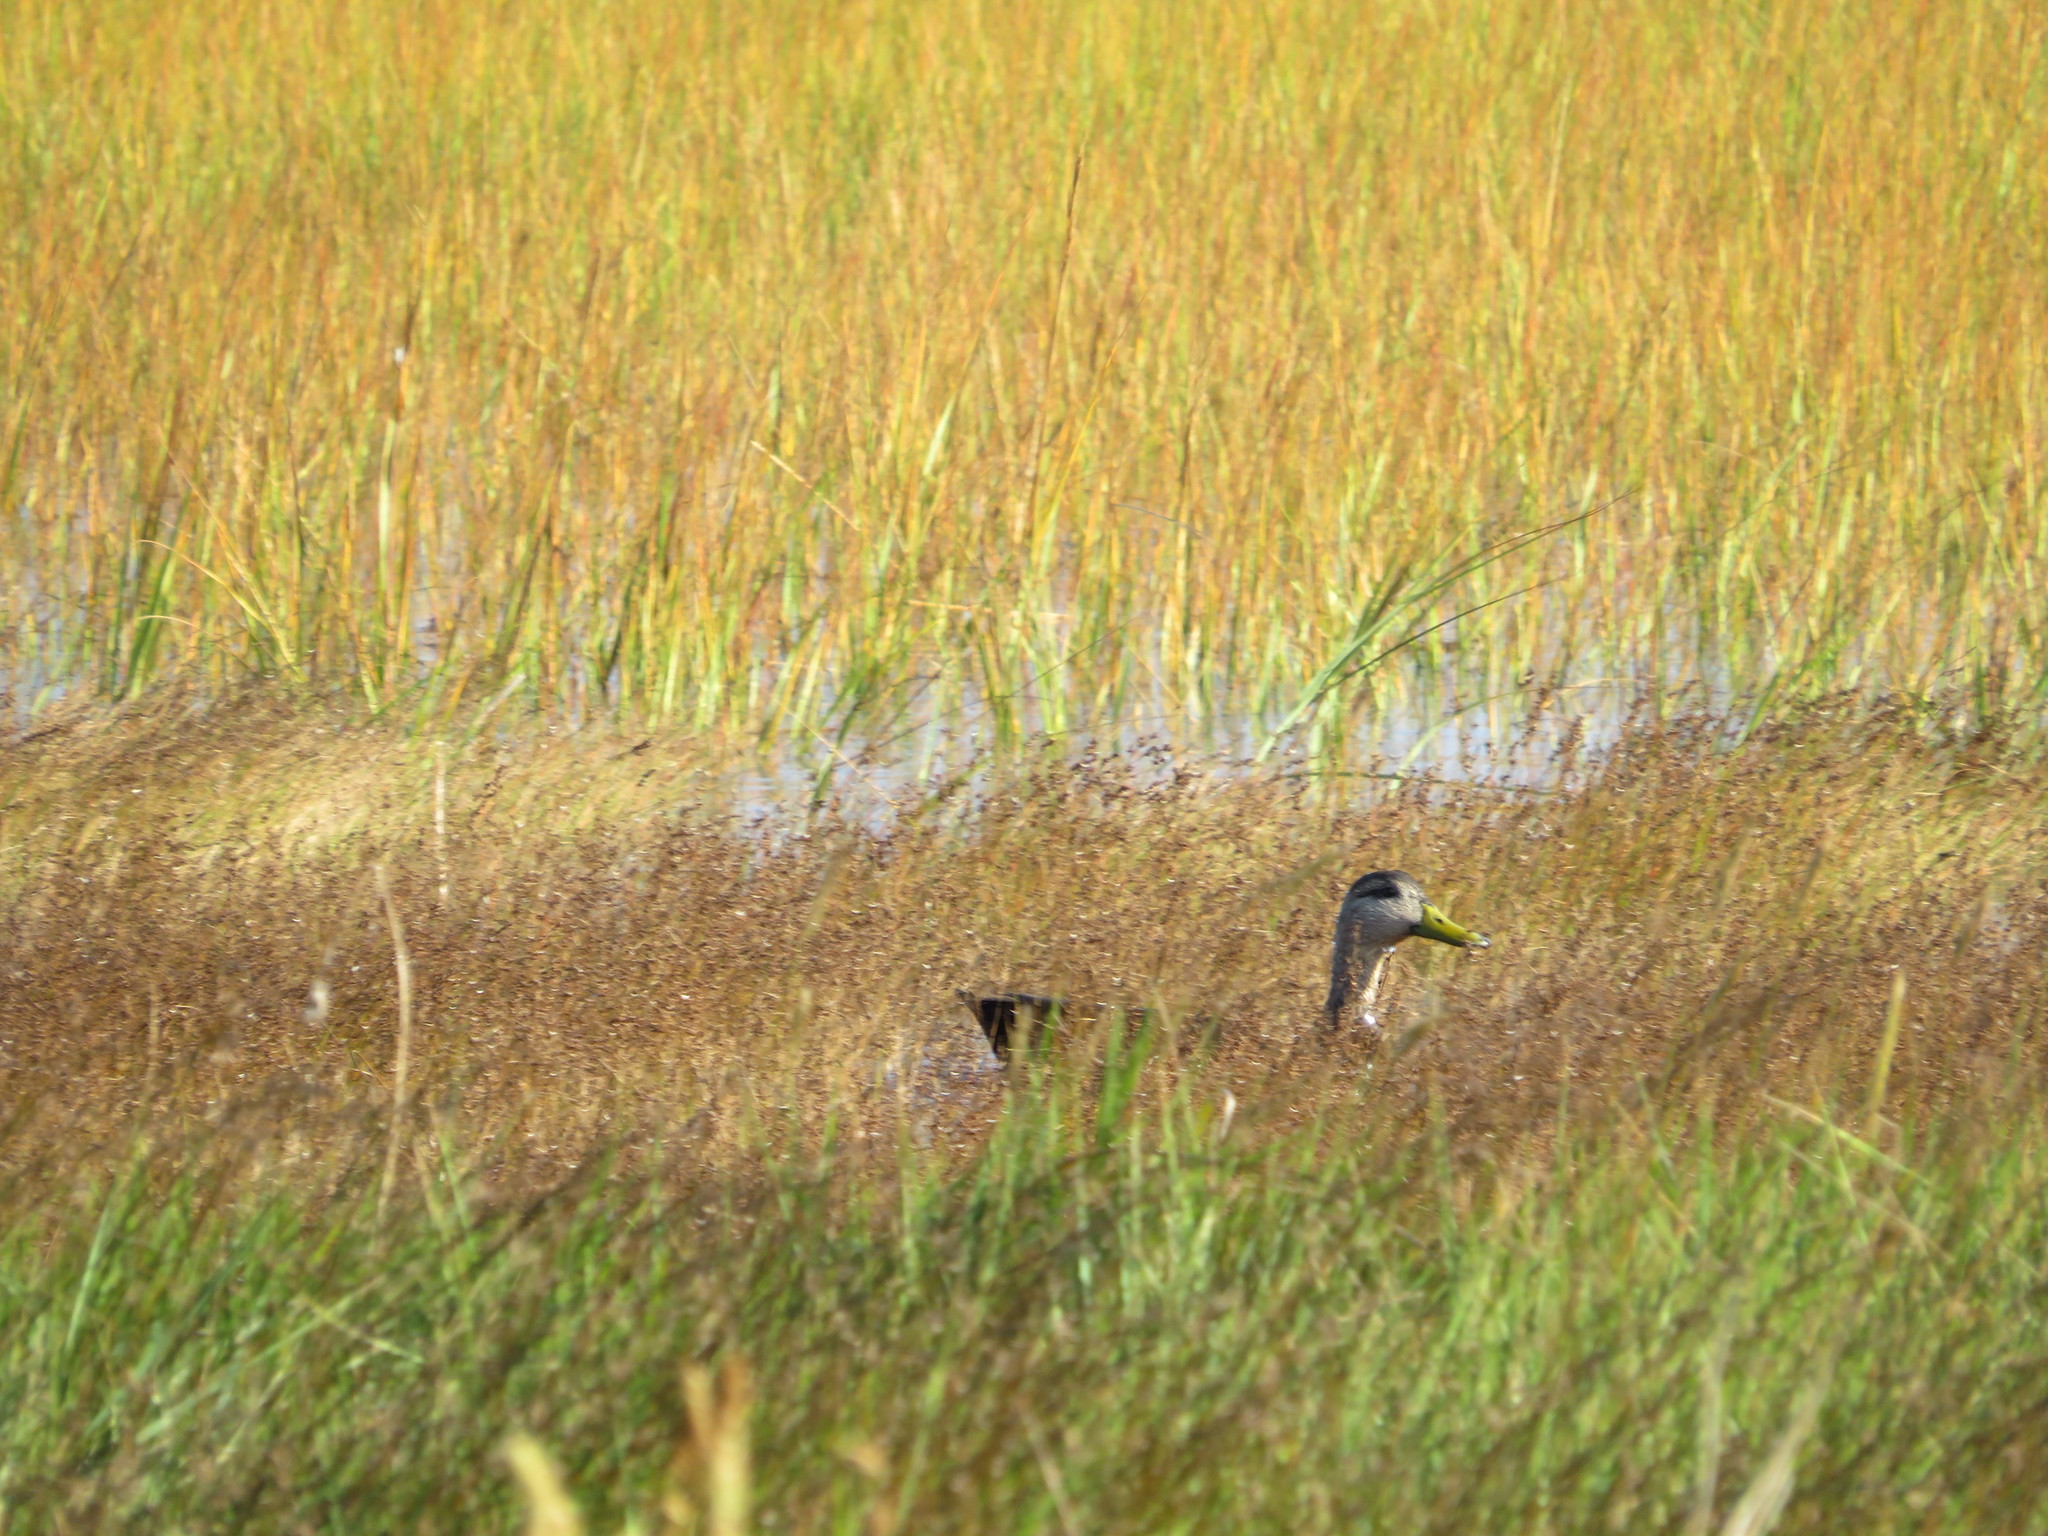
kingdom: Animalia
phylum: Chordata
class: Aves
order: Anseriformes
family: Anatidae
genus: Anas
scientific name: Anas rubripes
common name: American black duck
